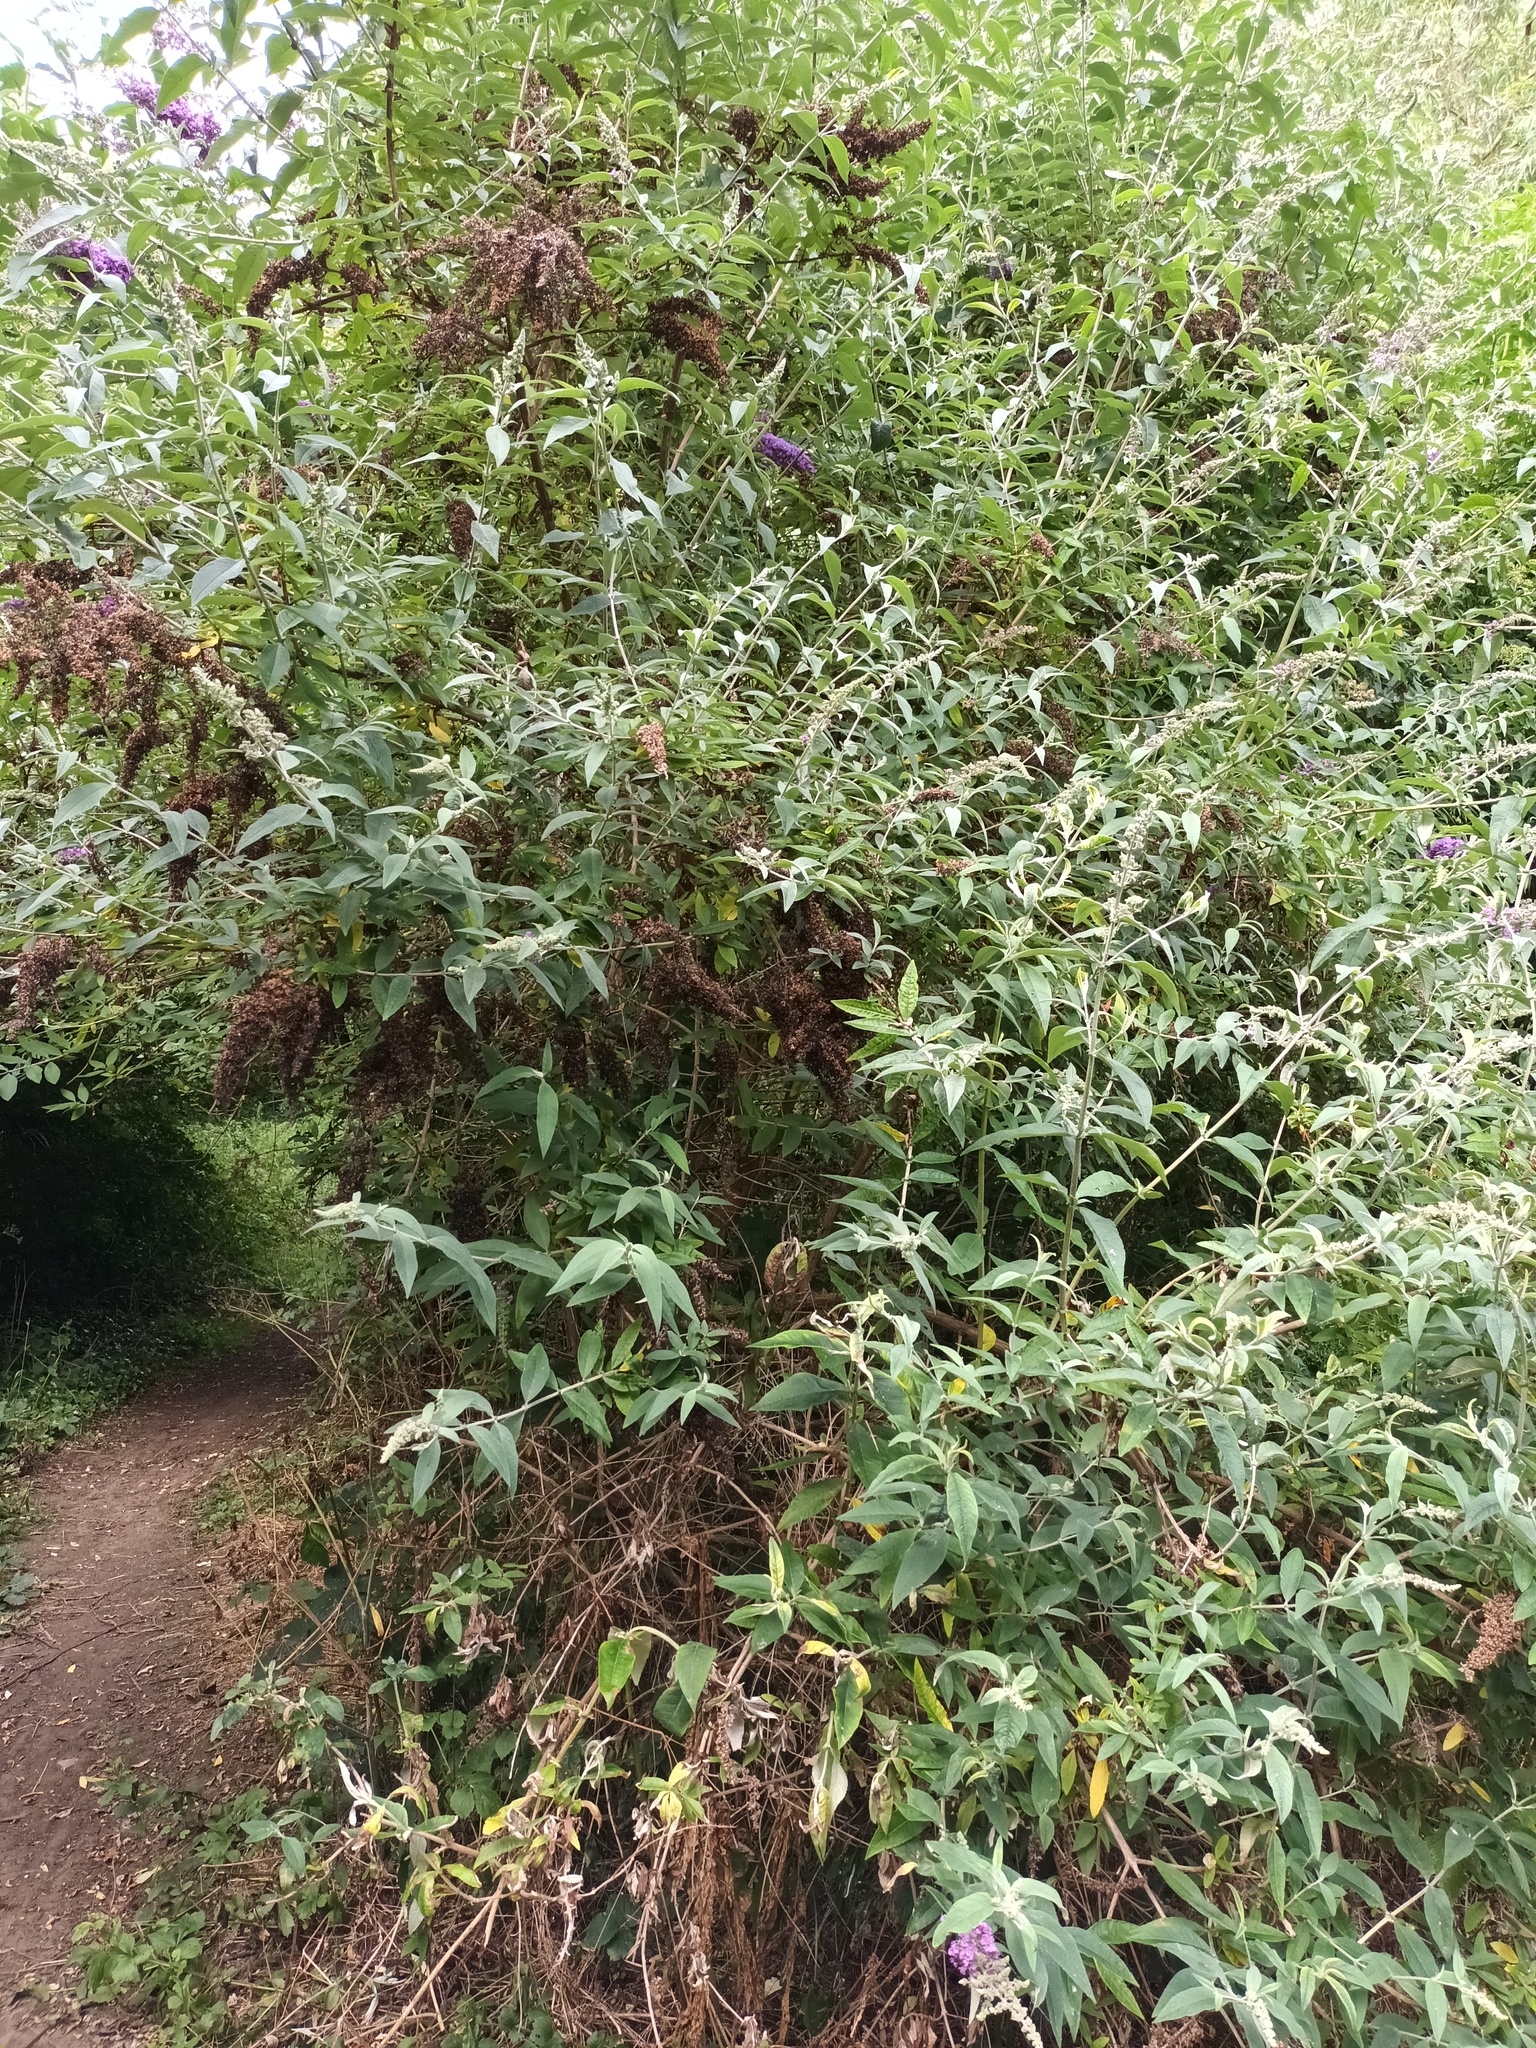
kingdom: Plantae
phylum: Tracheophyta
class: Magnoliopsida
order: Lamiales
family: Scrophulariaceae
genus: Buddleja
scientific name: Buddleja davidii
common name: Butterfly-bush
